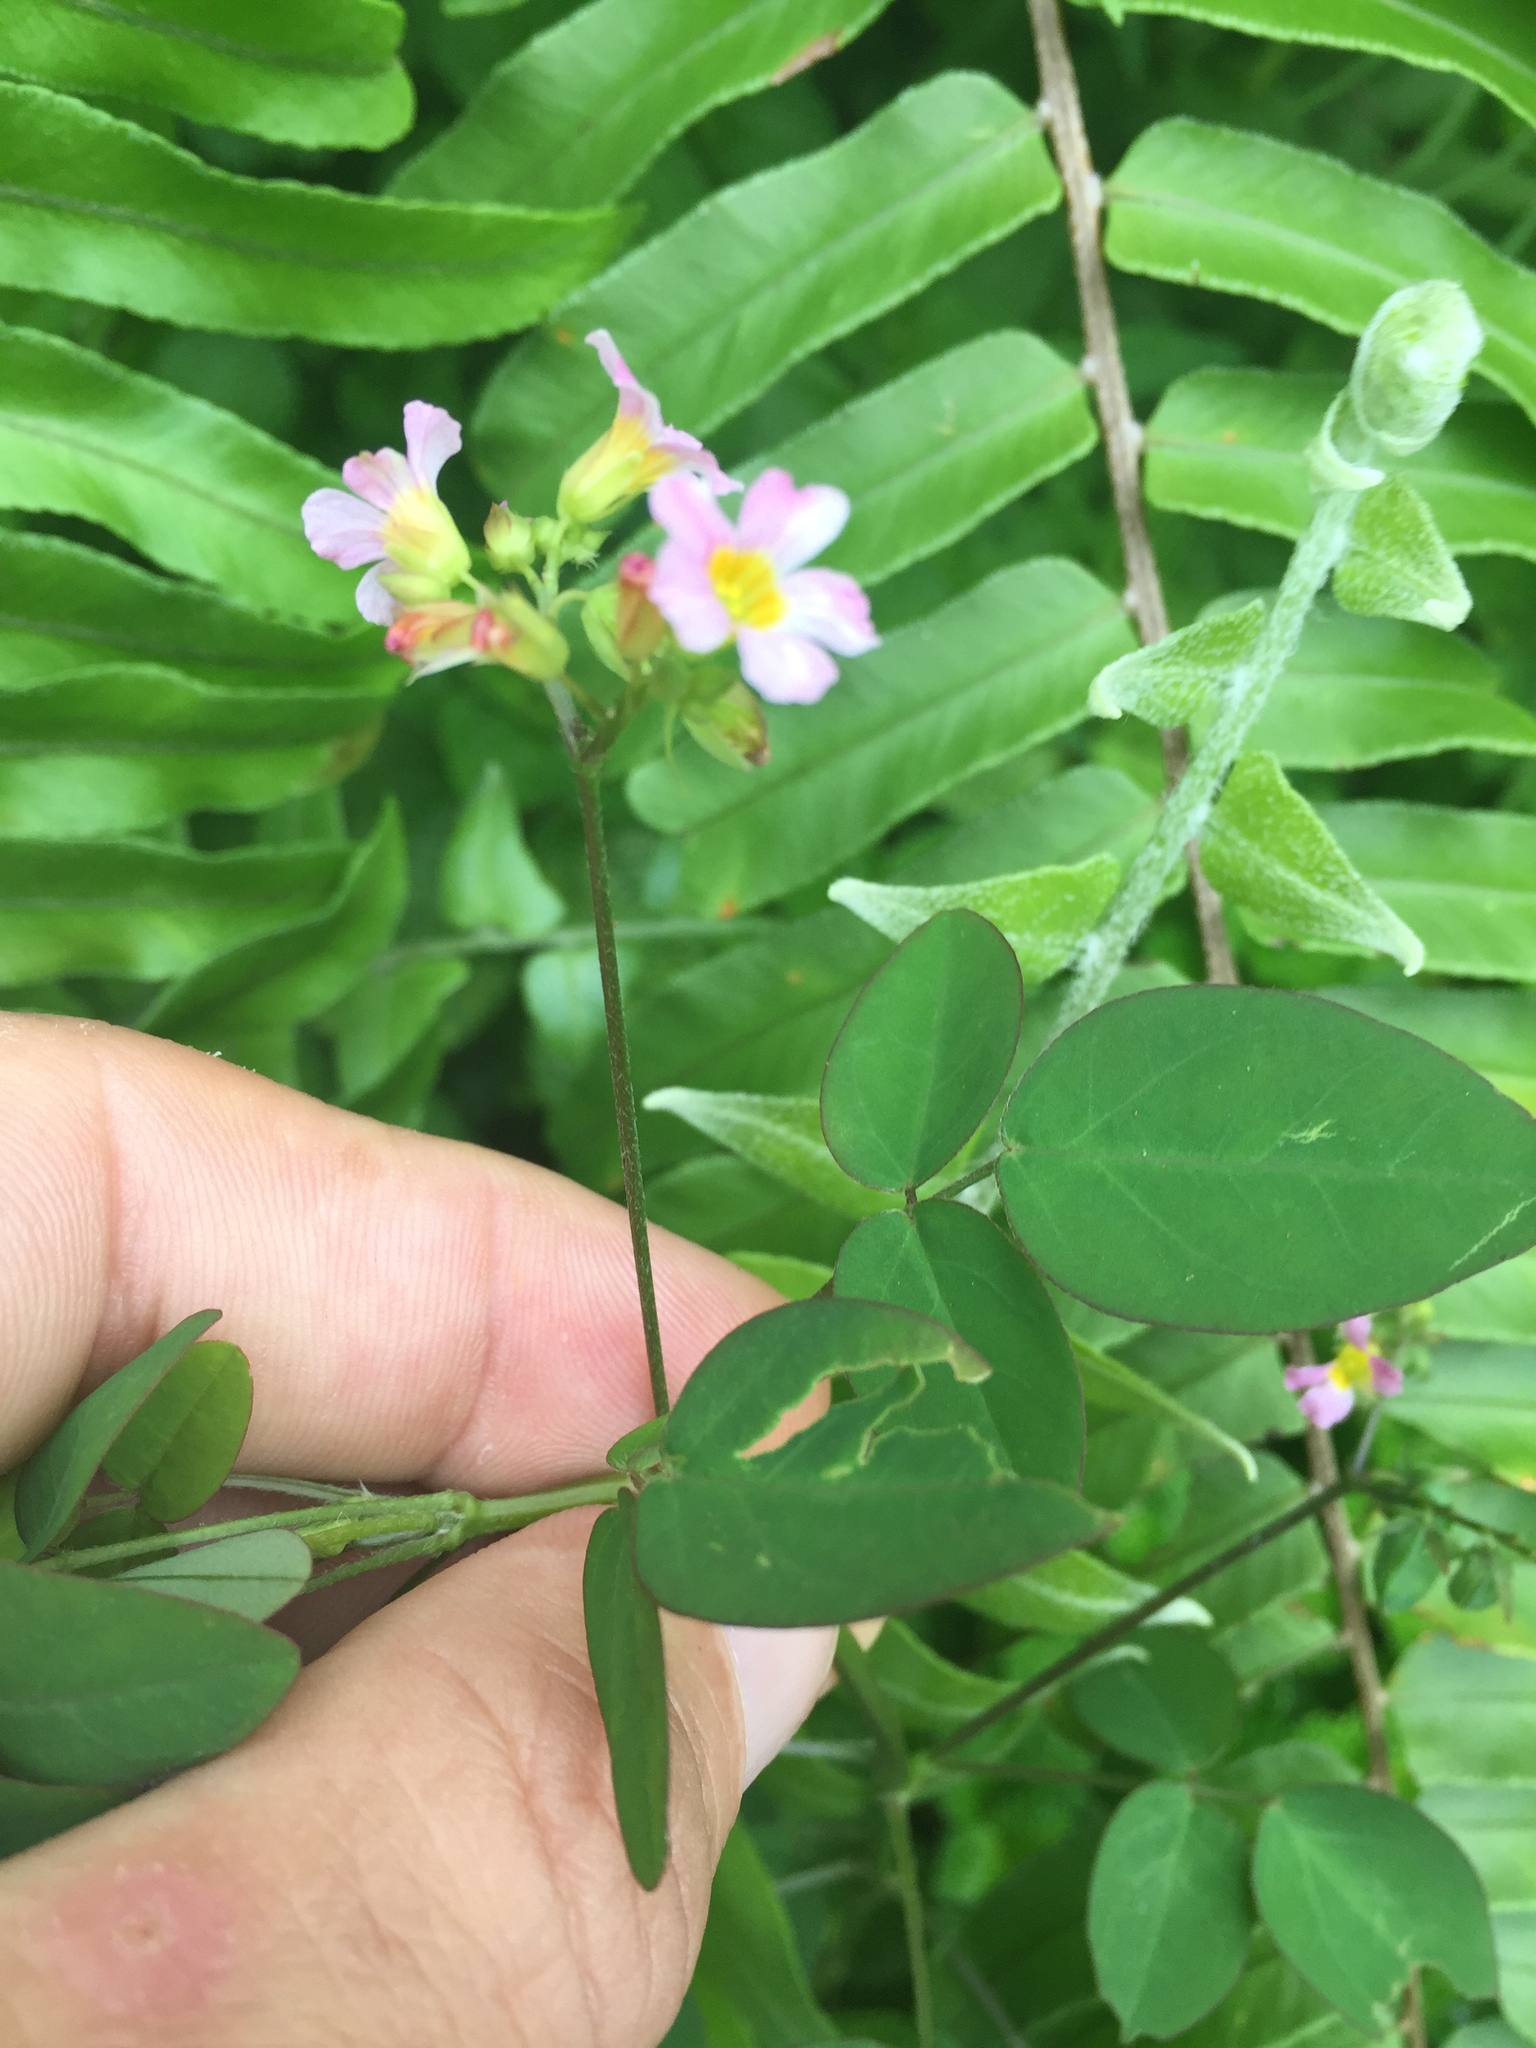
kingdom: Plantae
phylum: Tracheophyta
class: Magnoliopsida
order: Oxalidales
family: Oxalidaceae
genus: Oxalis
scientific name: Oxalis barrelieri
